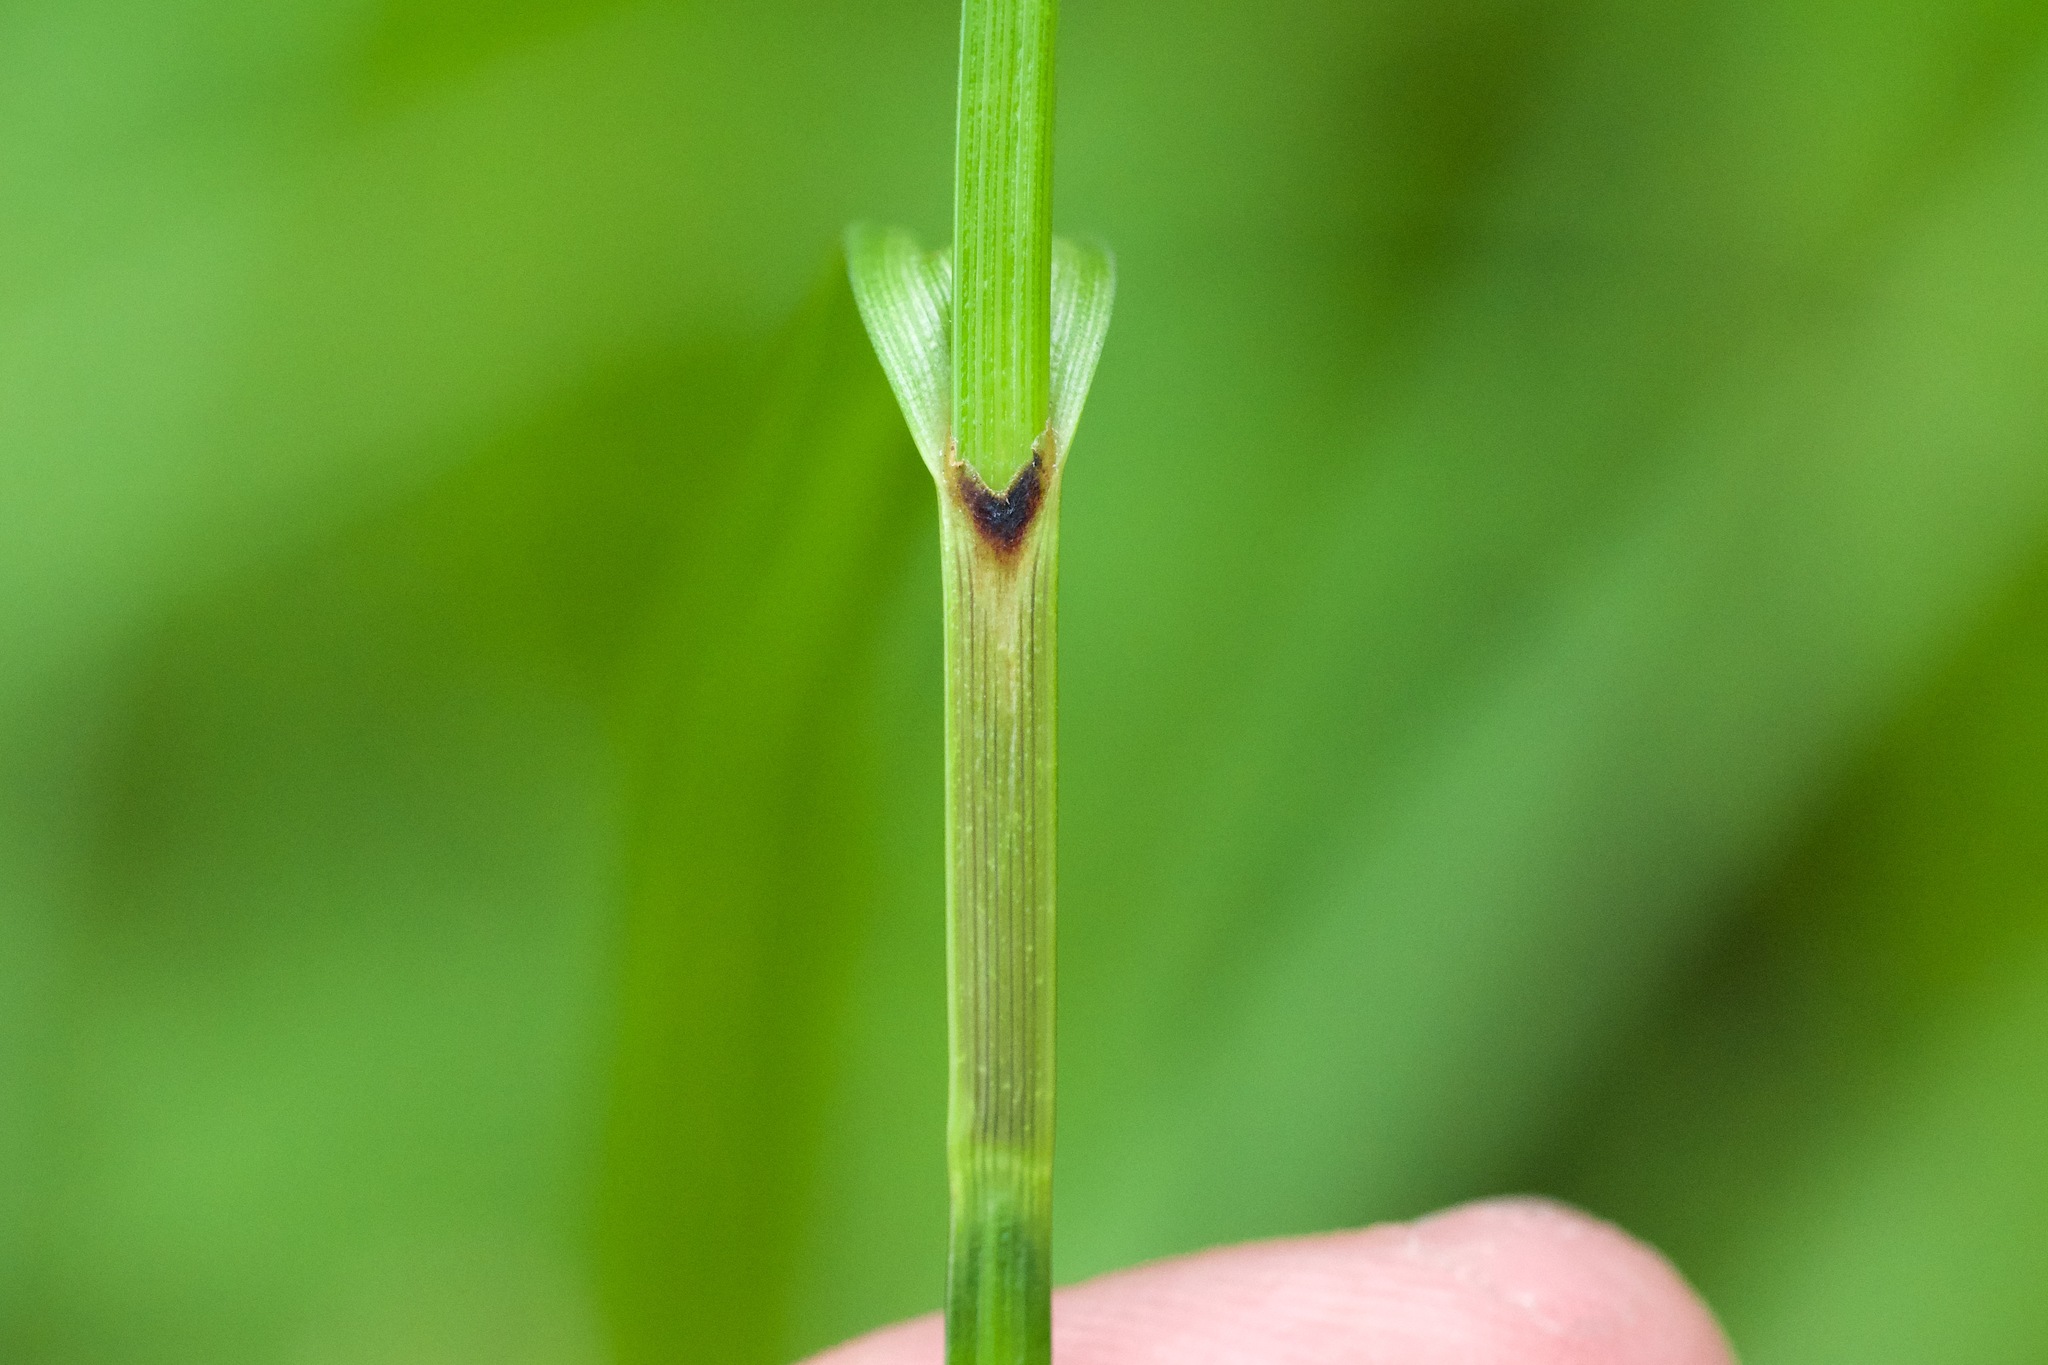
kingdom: Plantae
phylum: Tracheophyta
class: Liliopsida
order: Poales
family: Cyperaceae
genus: Carex
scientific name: Carex trichocarpa
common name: Hairy-fruited lake sedge
